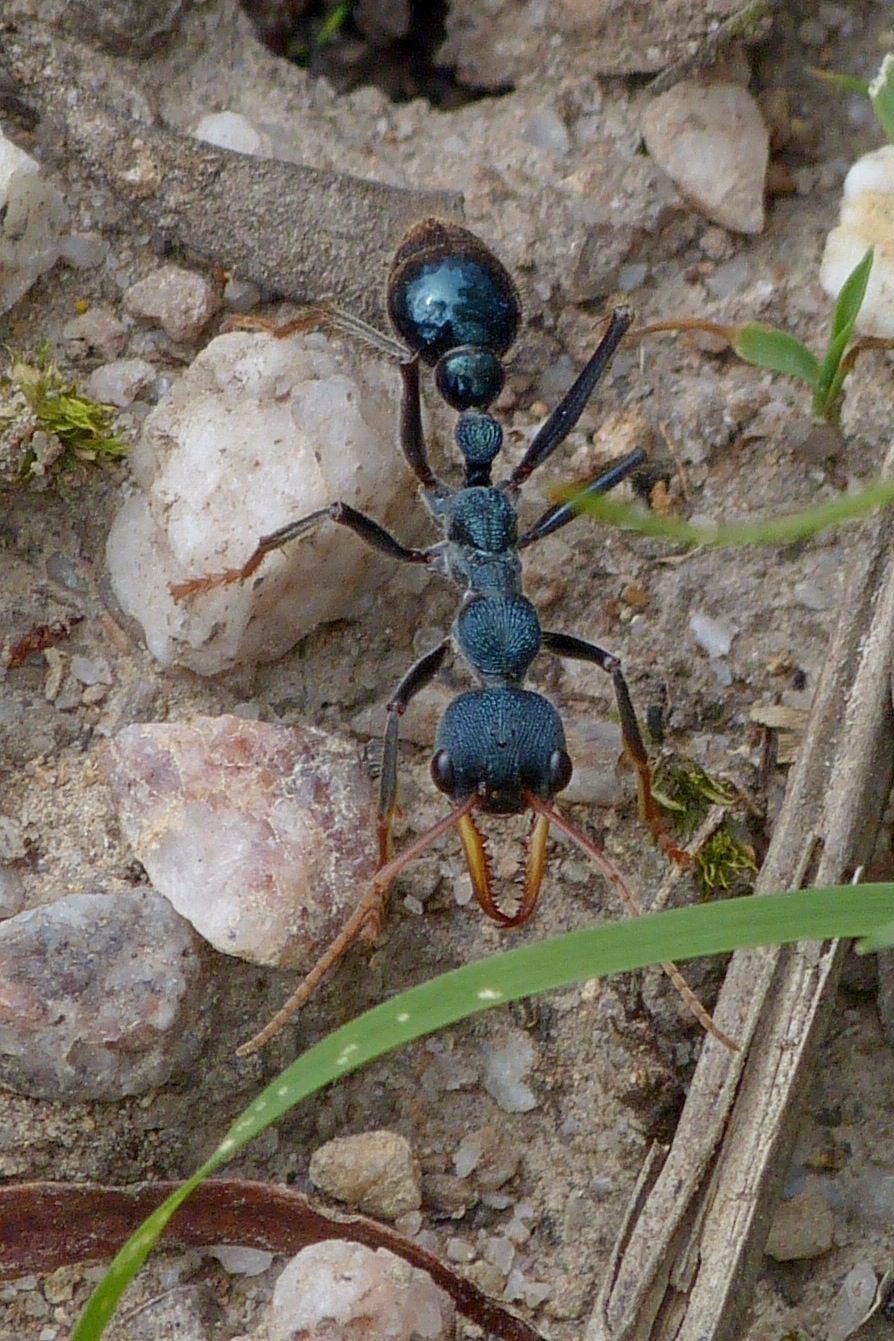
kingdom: Animalia
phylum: Arthropoda
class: Insecta
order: Hymenoptera
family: Formicidae
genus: Myrmecia
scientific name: Myrmecia tarsata
